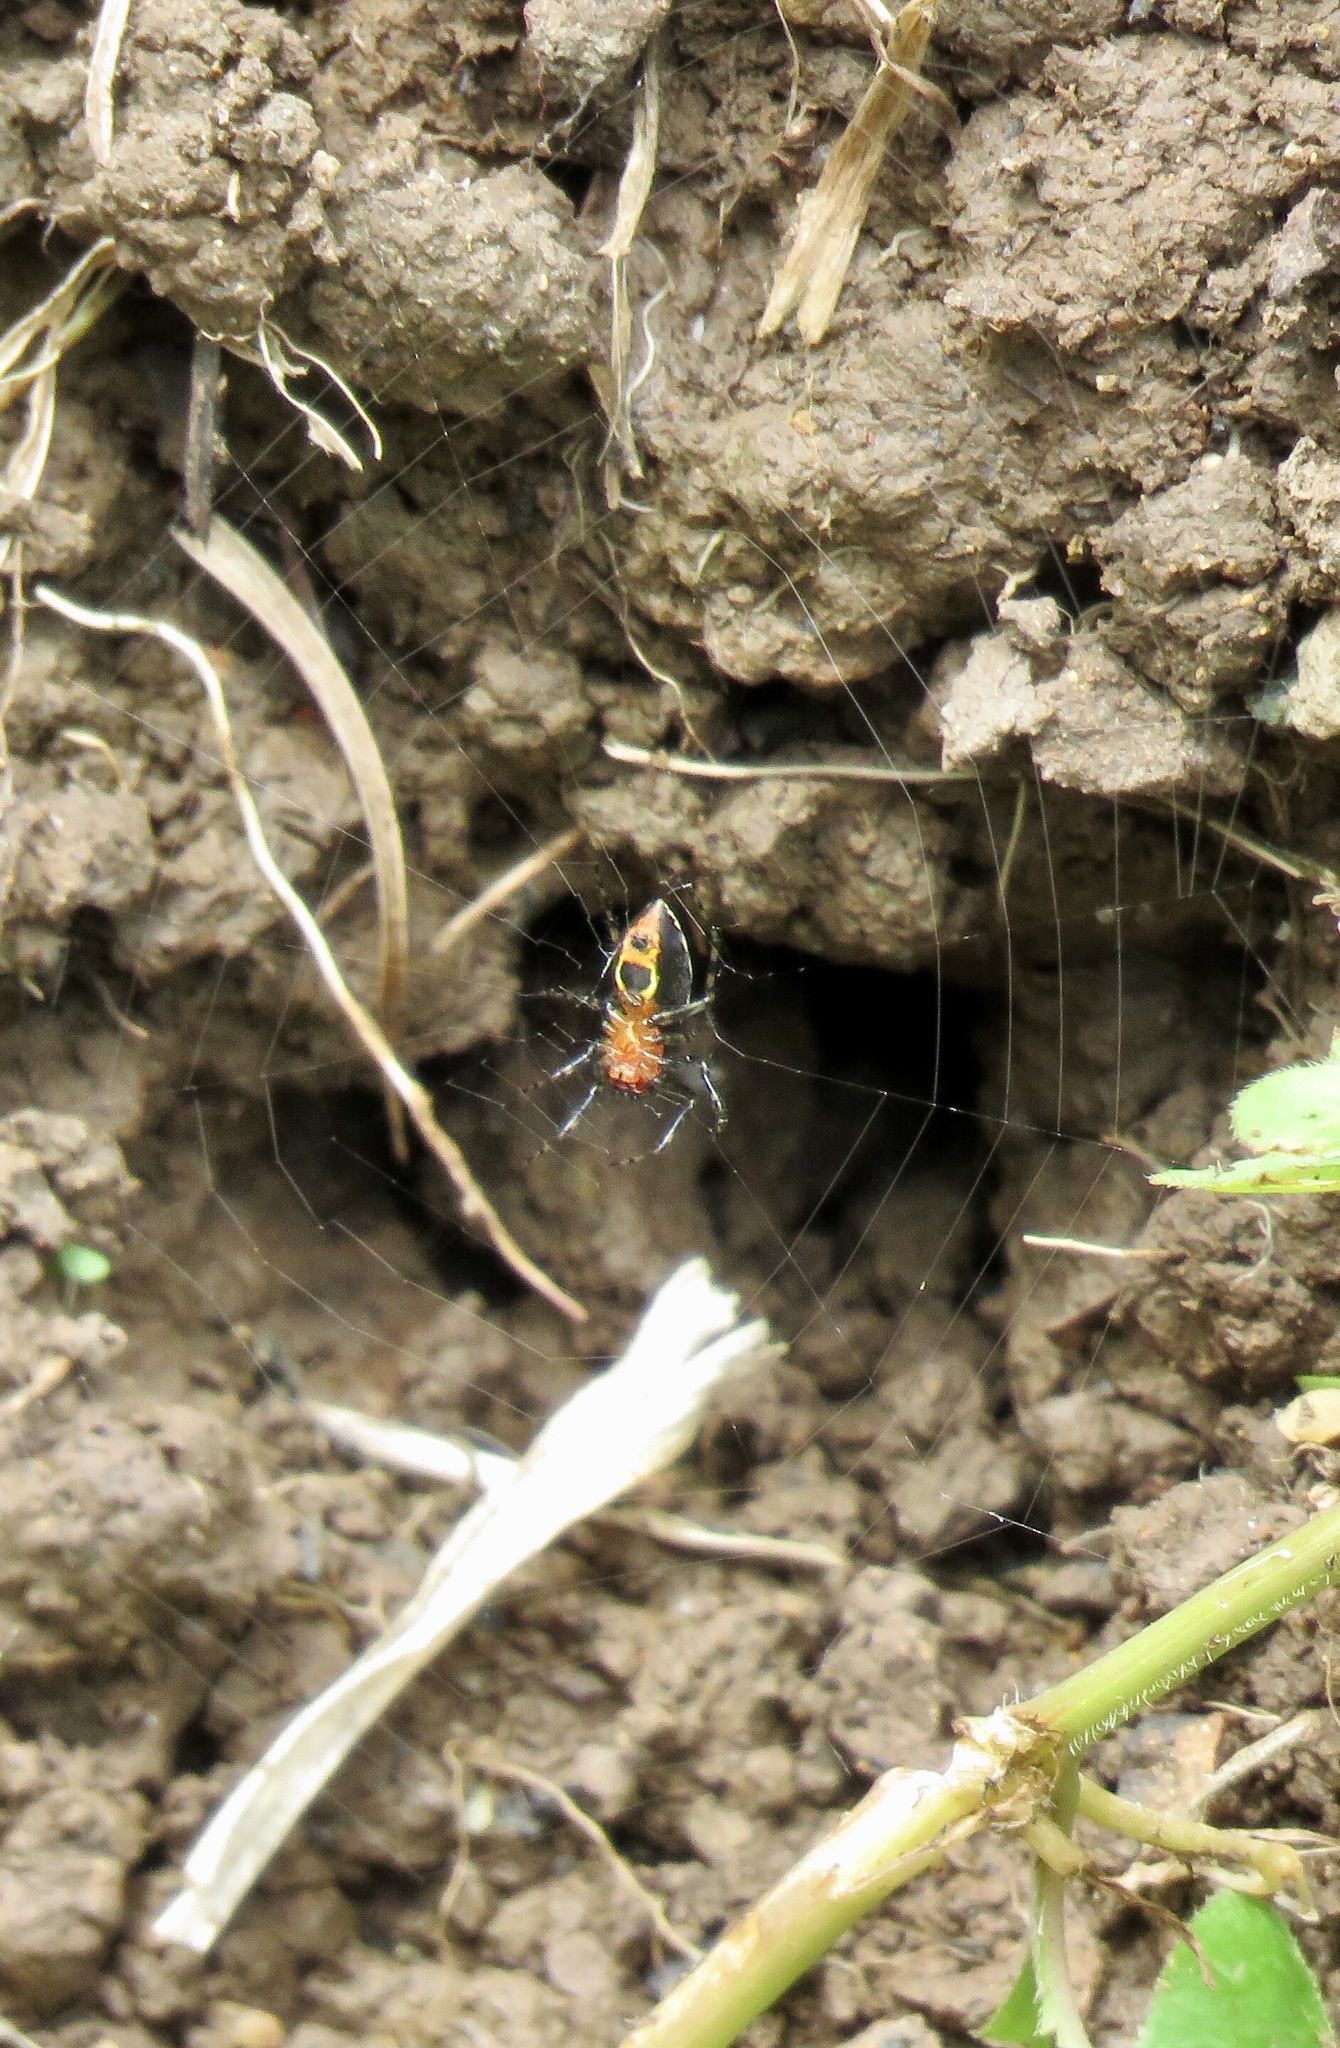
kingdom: Animalia
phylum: Arthropoda
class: Arachnida
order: Araneae
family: Araneidae
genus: Alpaida
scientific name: Alpaida leucogramma
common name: Orb weavers
